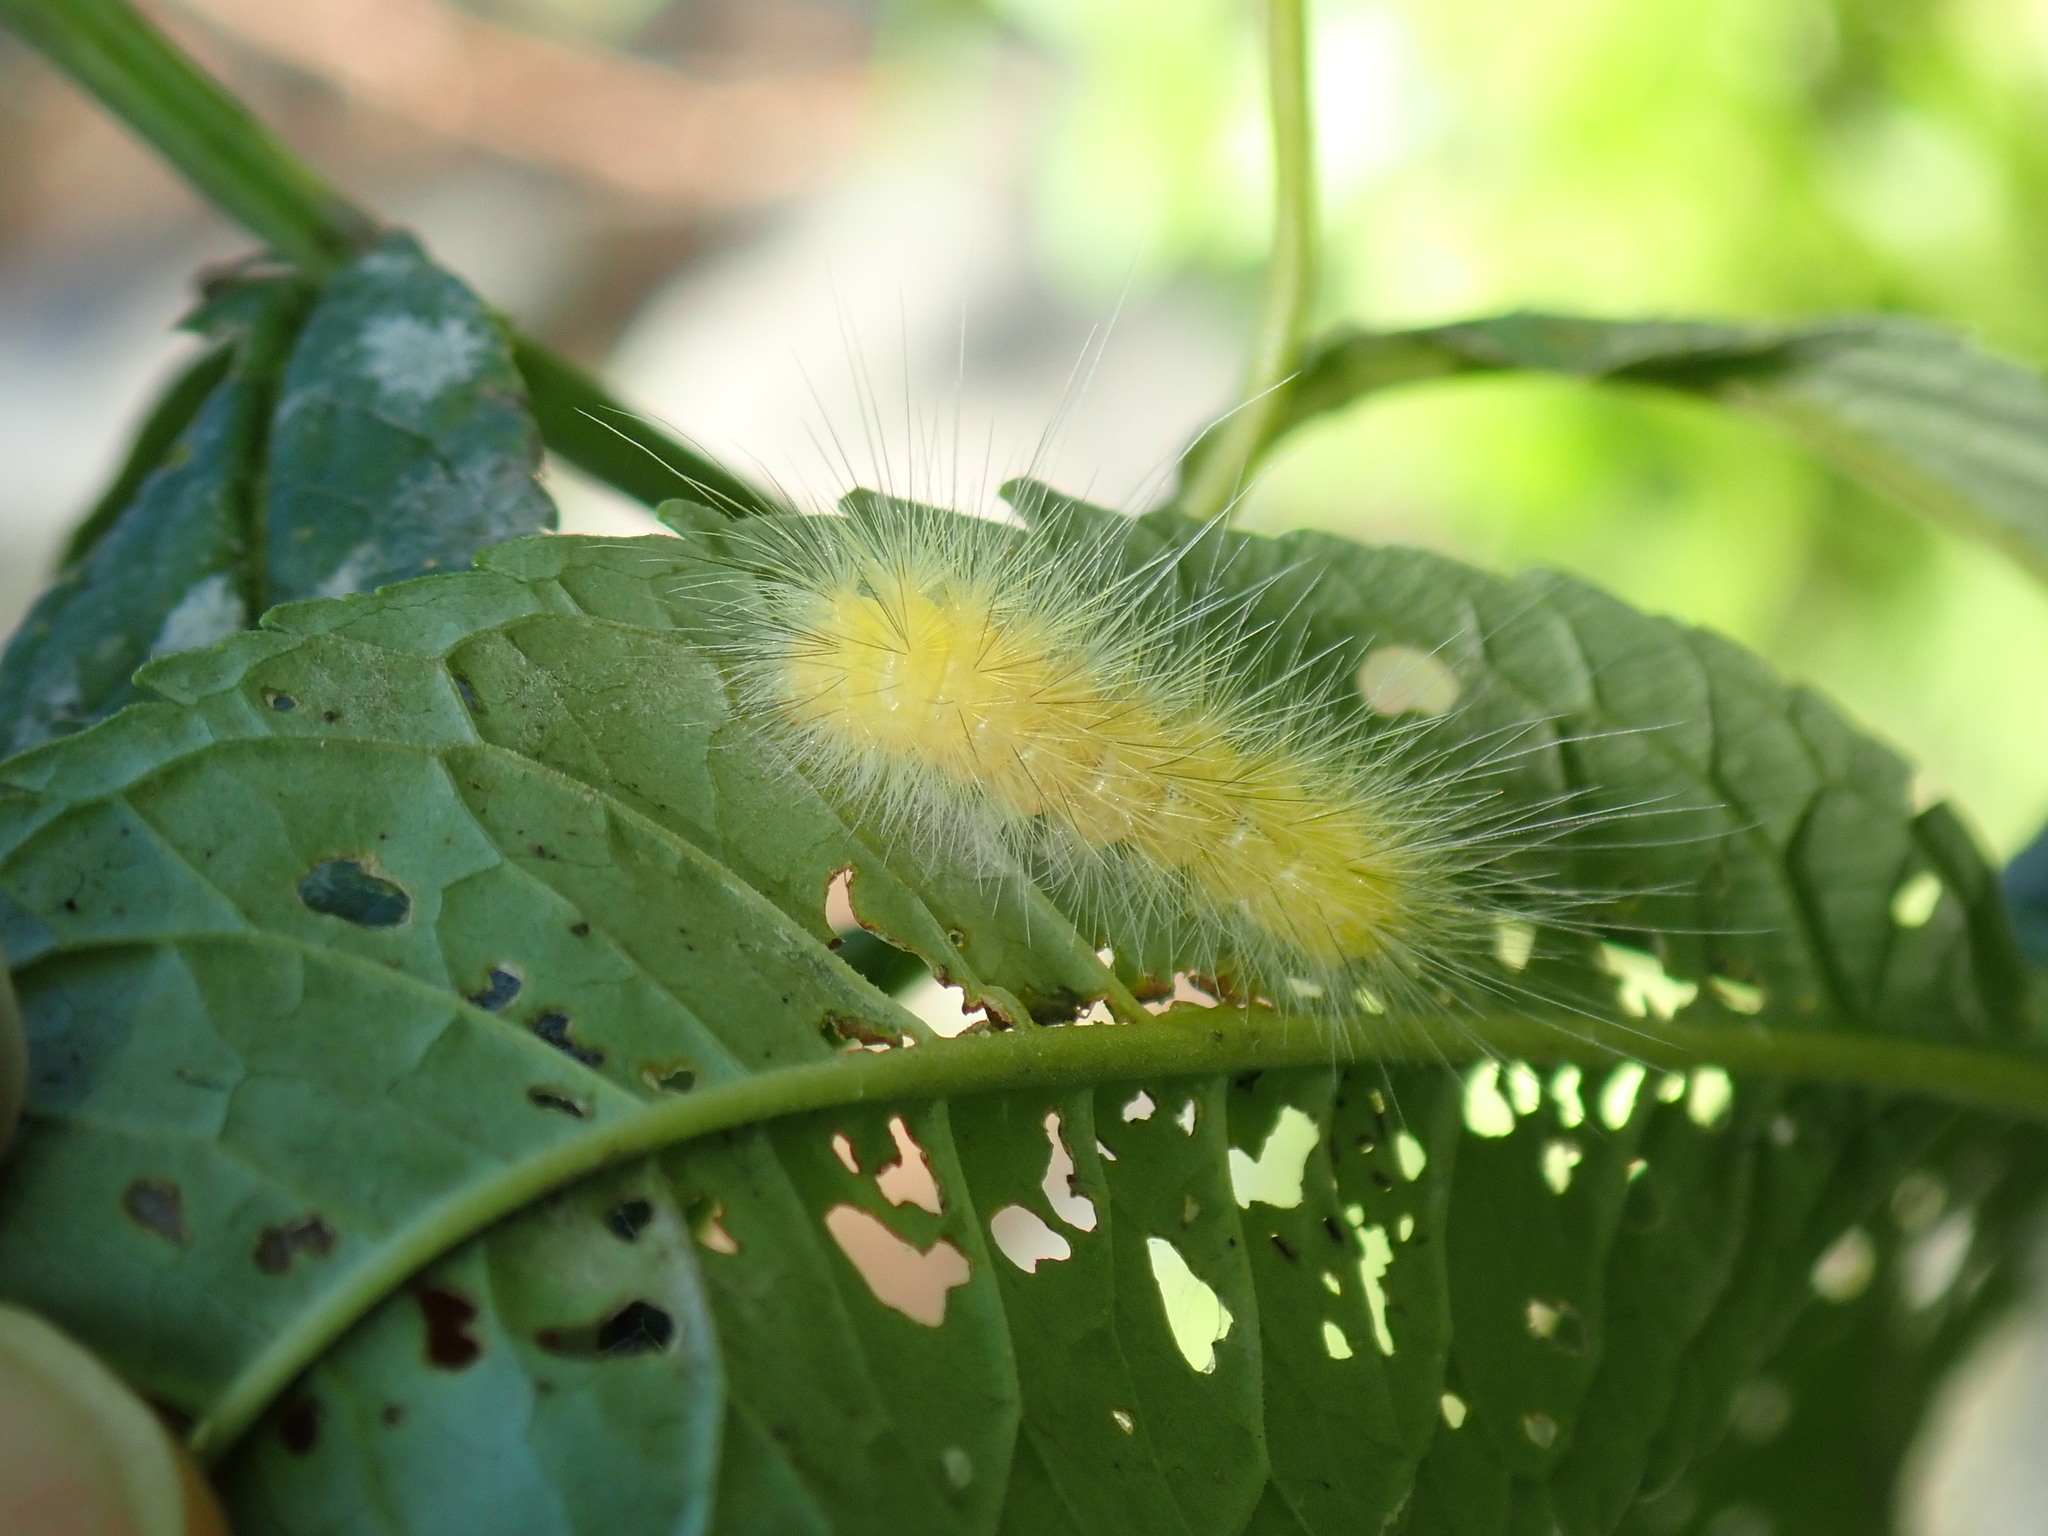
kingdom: Animalia
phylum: Arthropoda
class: Insecta
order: Lepidoptera
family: Erebidae
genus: Spilosoma
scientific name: Spilosoma virginica
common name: Virginia tiger moth
